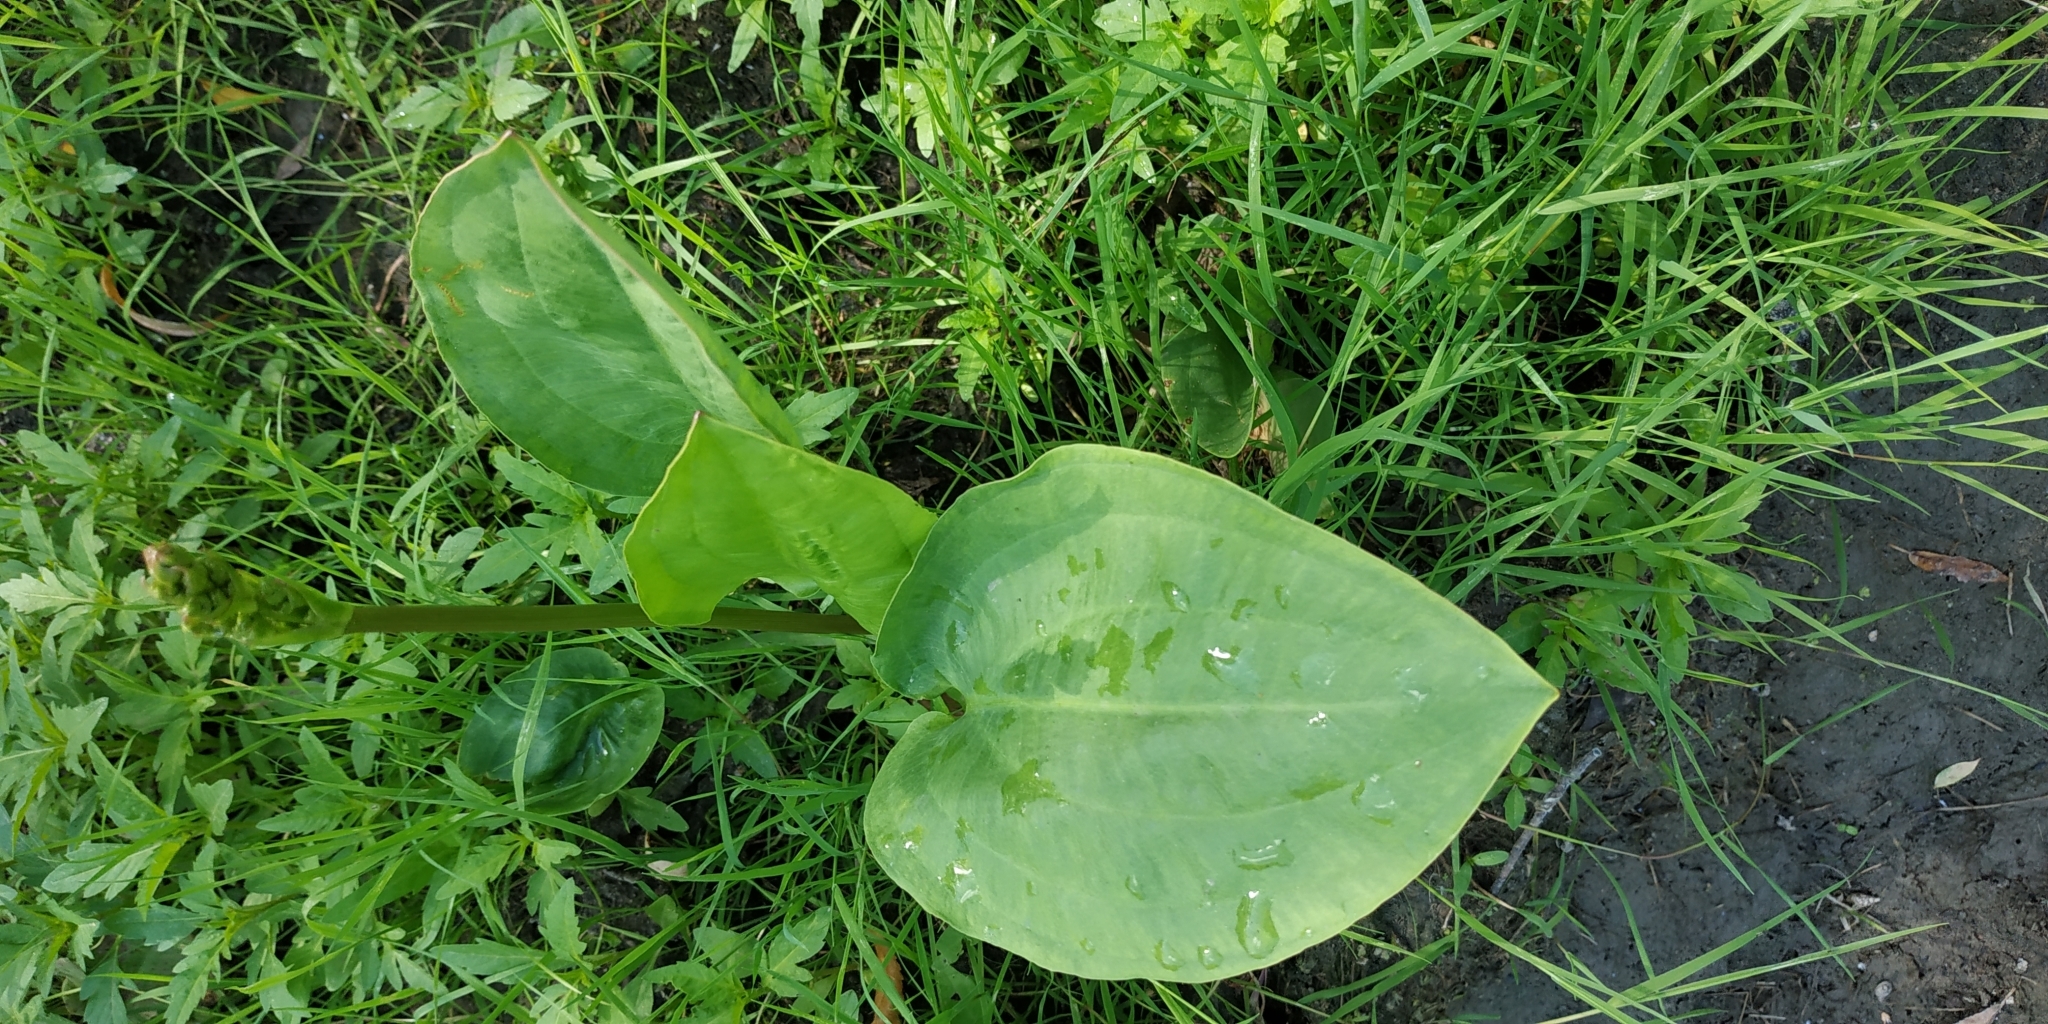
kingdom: Plantae
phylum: Tracheophyta
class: Liliopsida
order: Alismatales
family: Alismataceae
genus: Alisma
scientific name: Alisma plantago-aquatica
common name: Water-plantain
